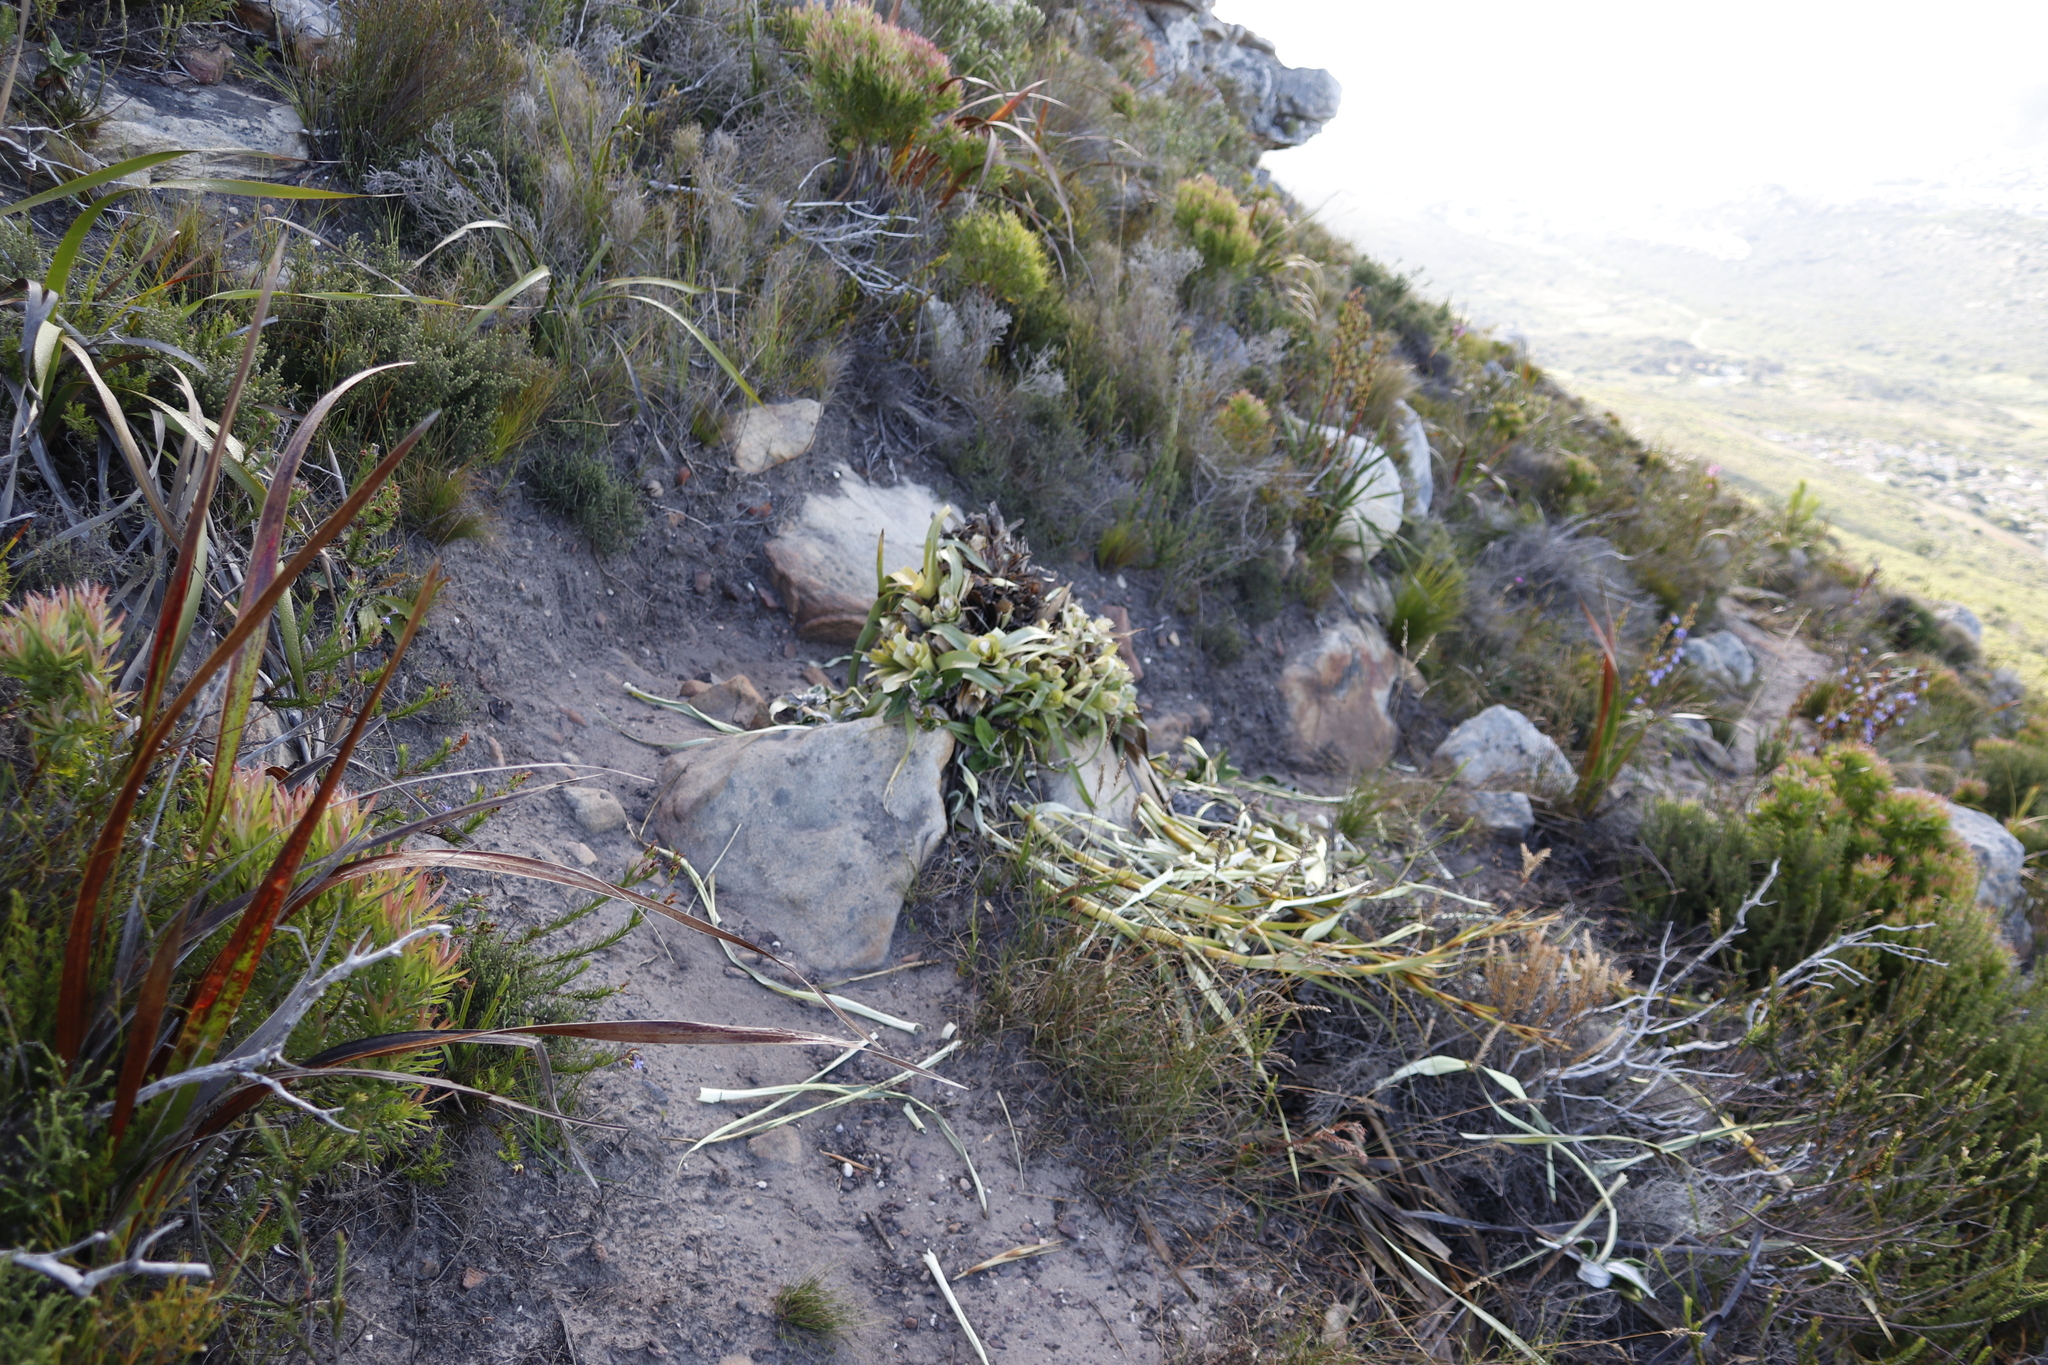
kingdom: Plantae
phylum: Tracheophyta
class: Liliopsida
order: Poales
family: Cyperaceae
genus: Tetraria
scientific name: Tetraria thermalis
